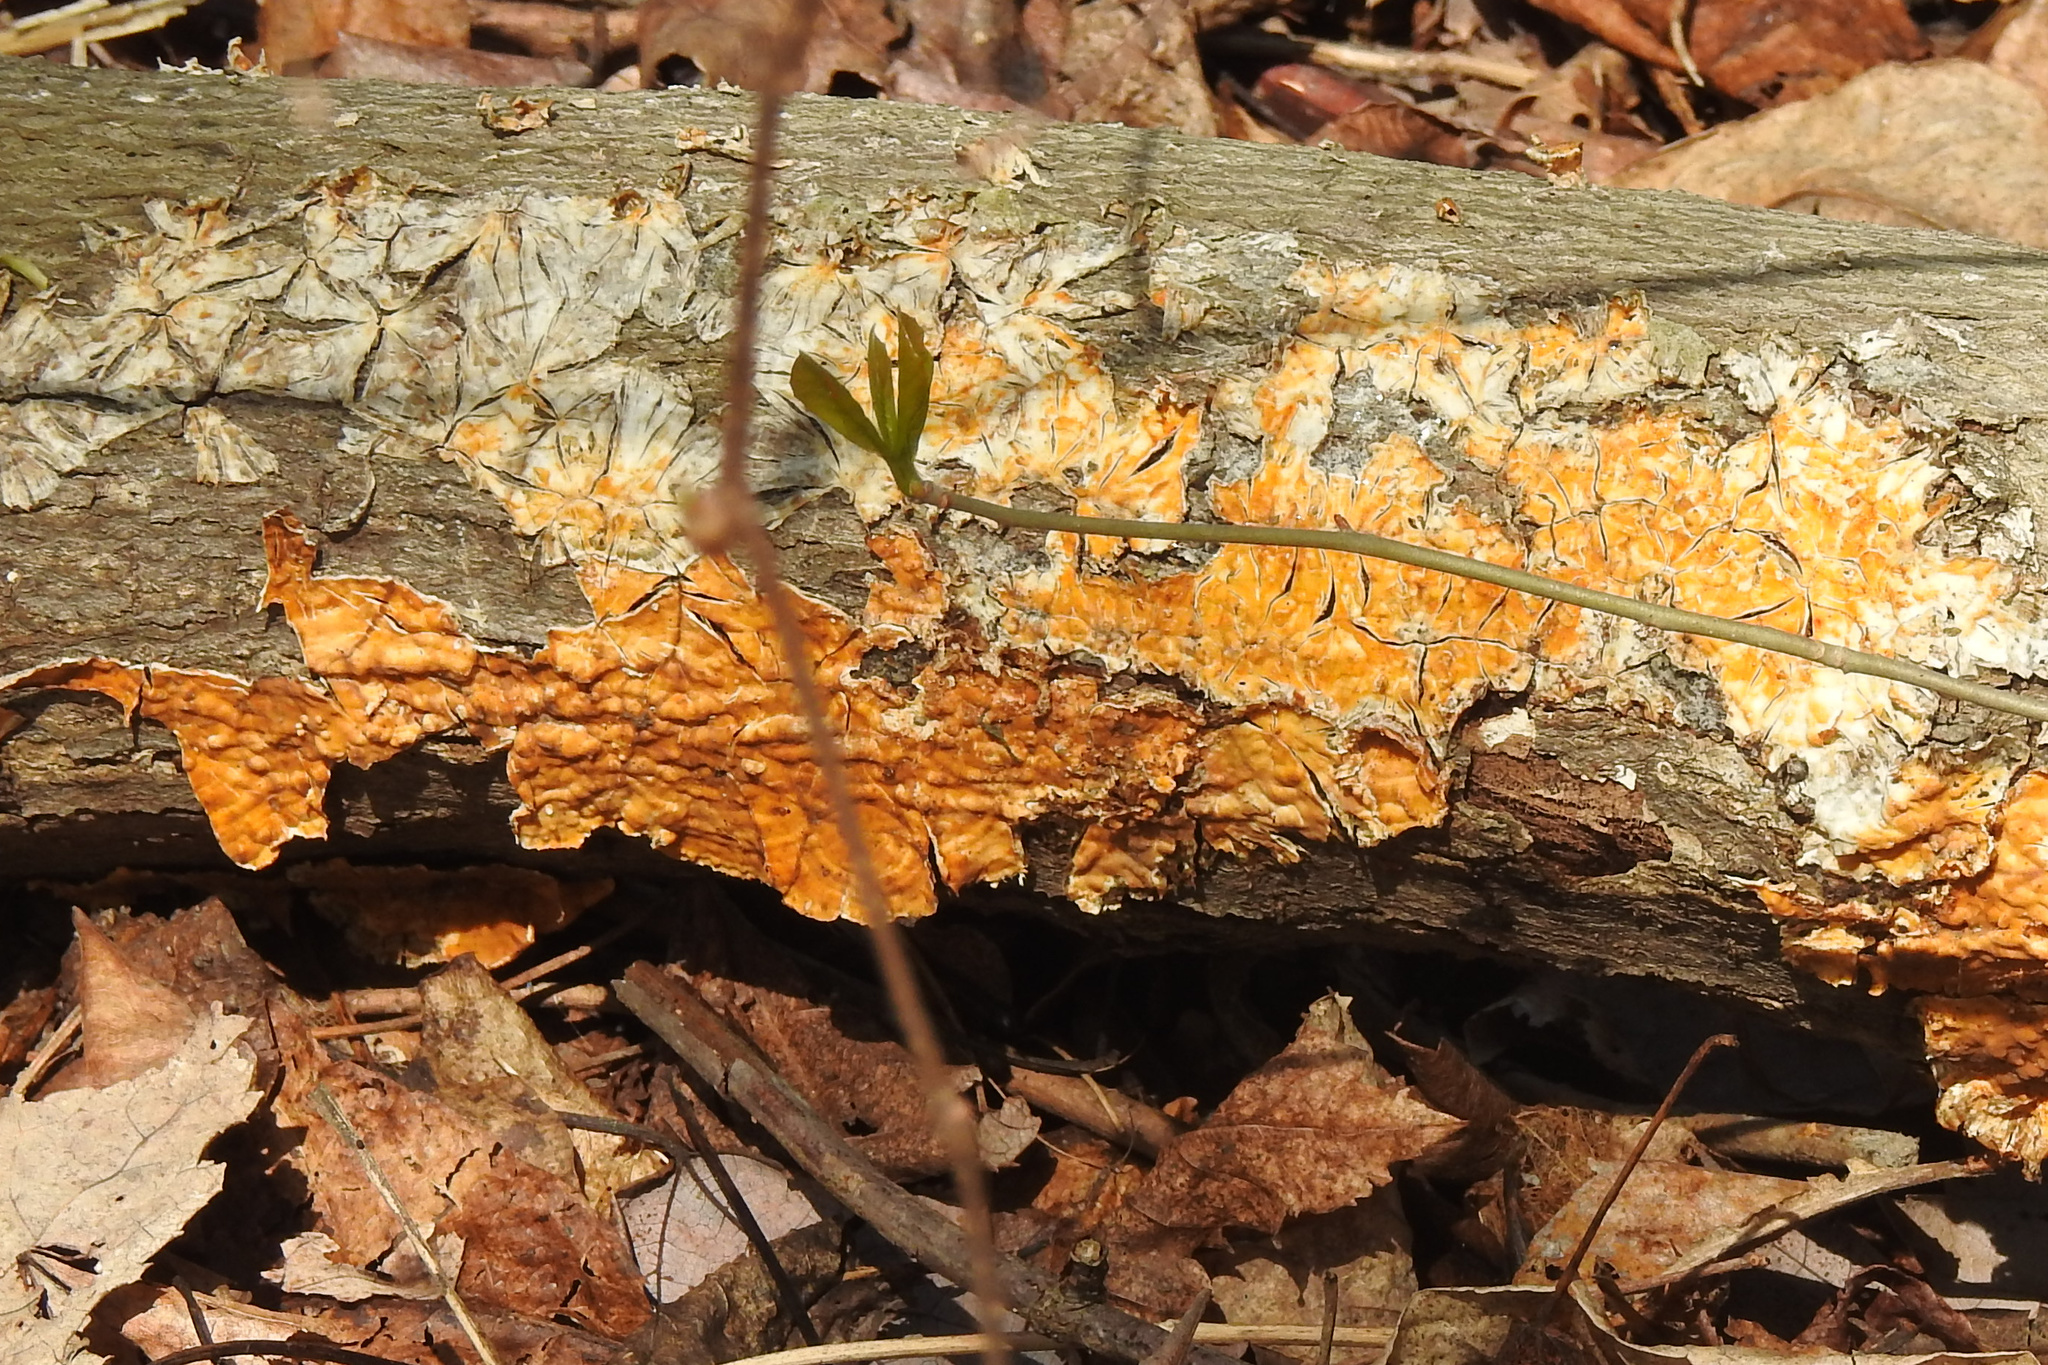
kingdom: Fungi
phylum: Basidiomycota
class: Agaricomycetes
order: Russulales
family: Stereaceae
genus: Stereum
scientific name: Stereum complicatum
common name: Crowded parchment
